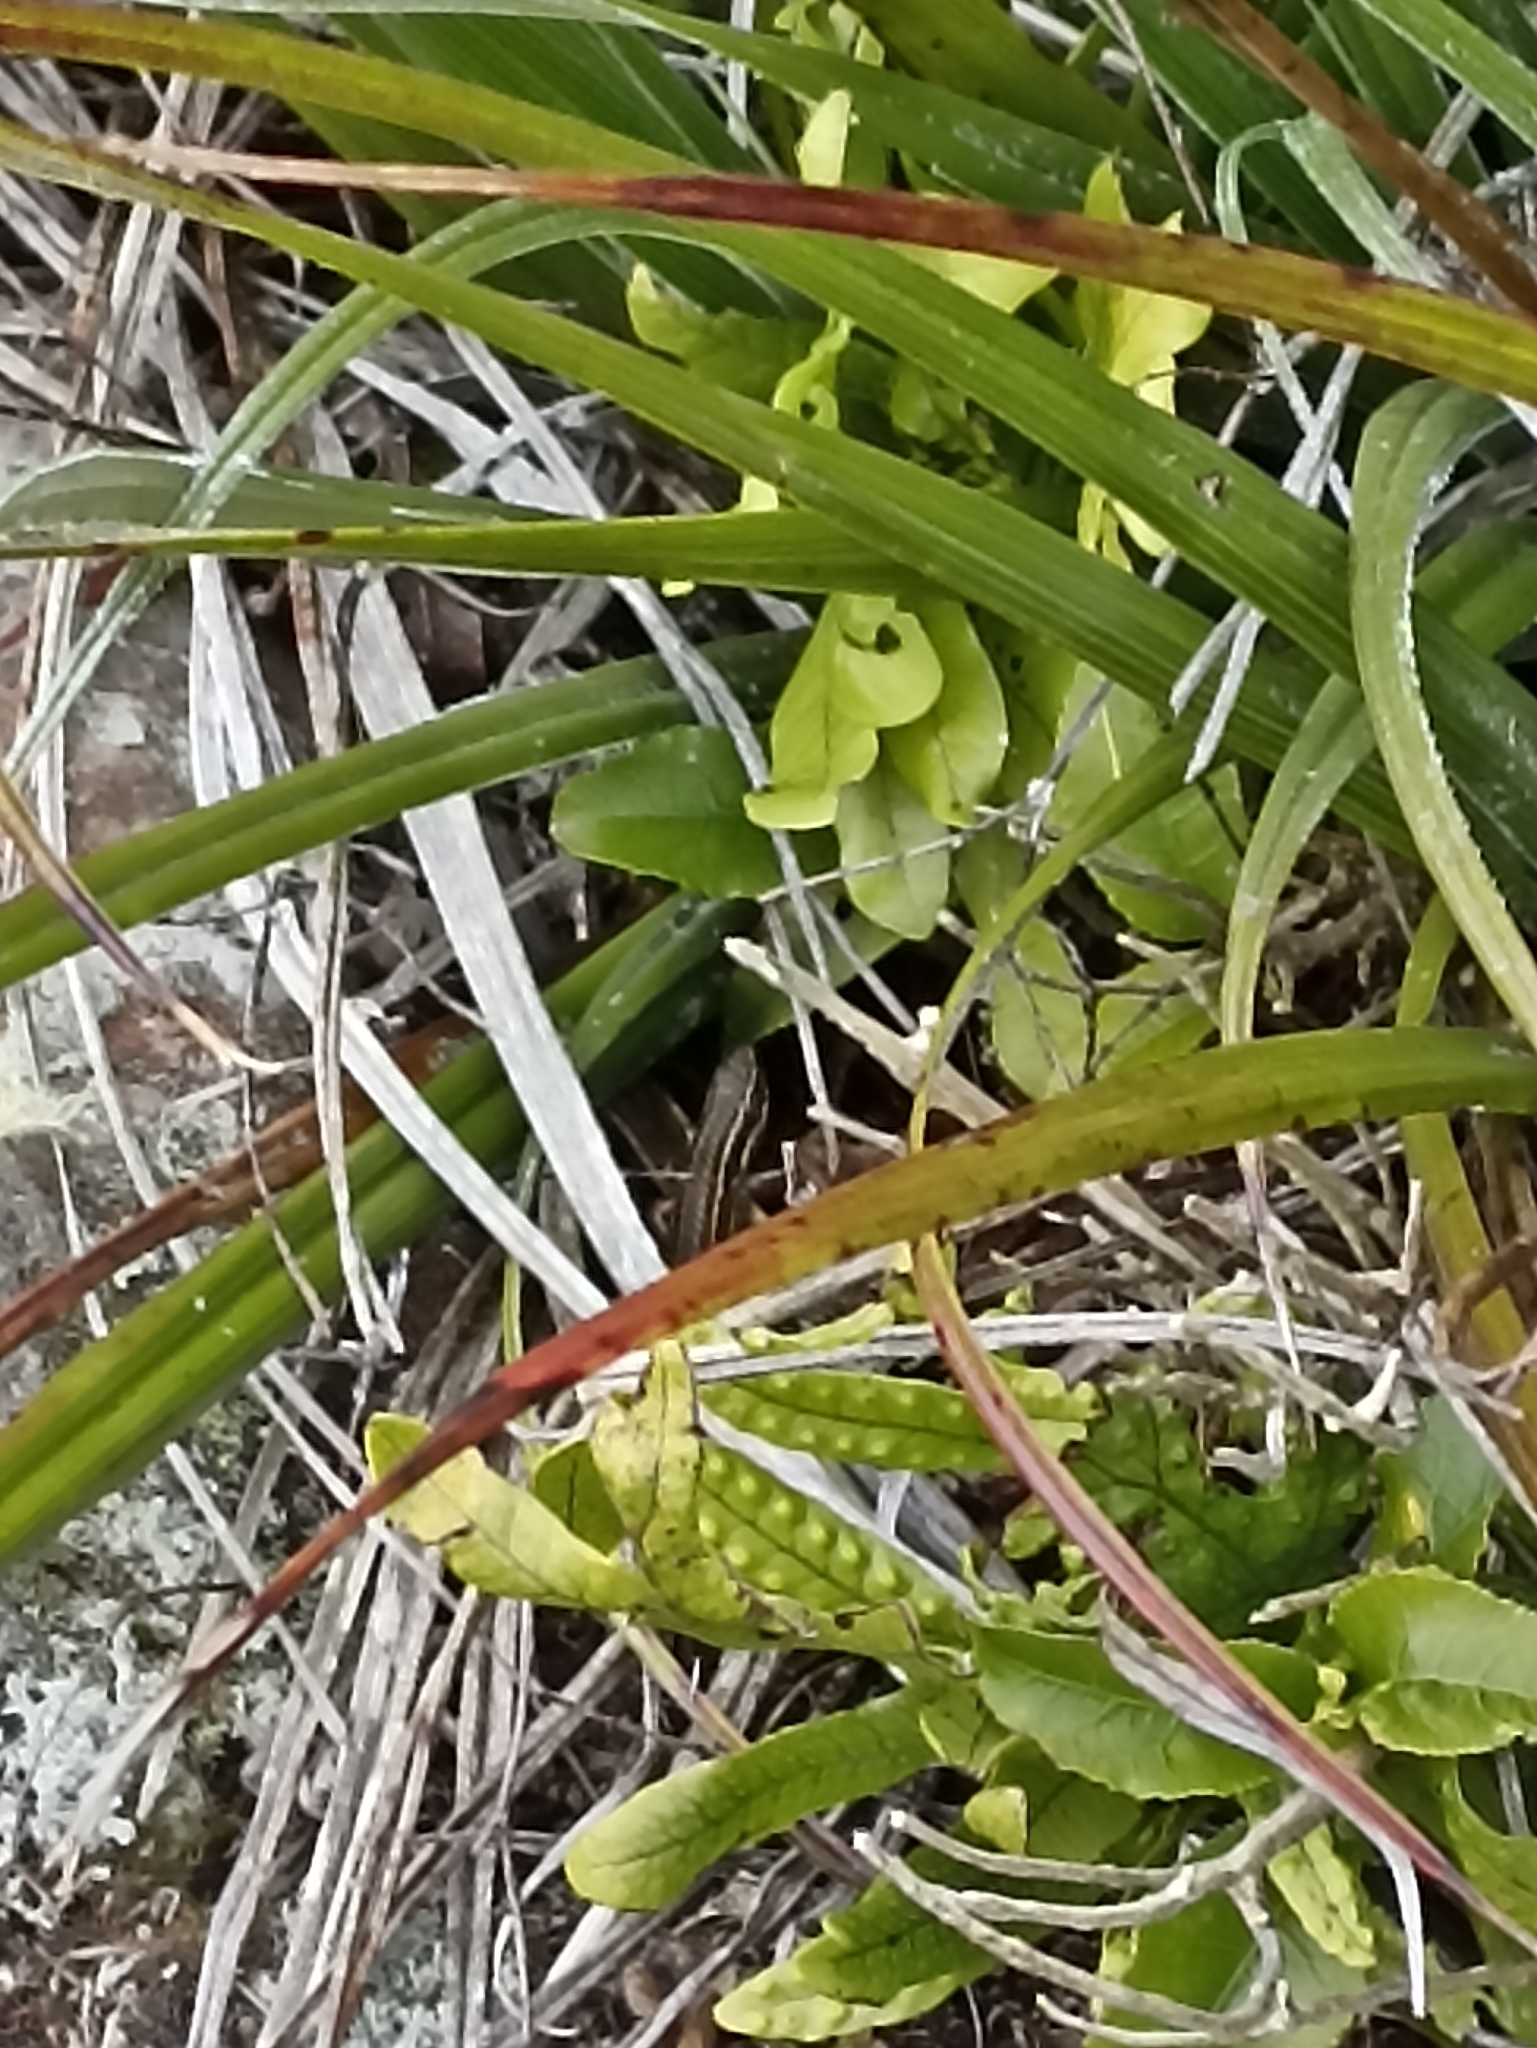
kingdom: Animalia
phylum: Chordata
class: Squamata
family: Scincidae
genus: Oligosoma
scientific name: Oligosoma moco
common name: Moco skink
